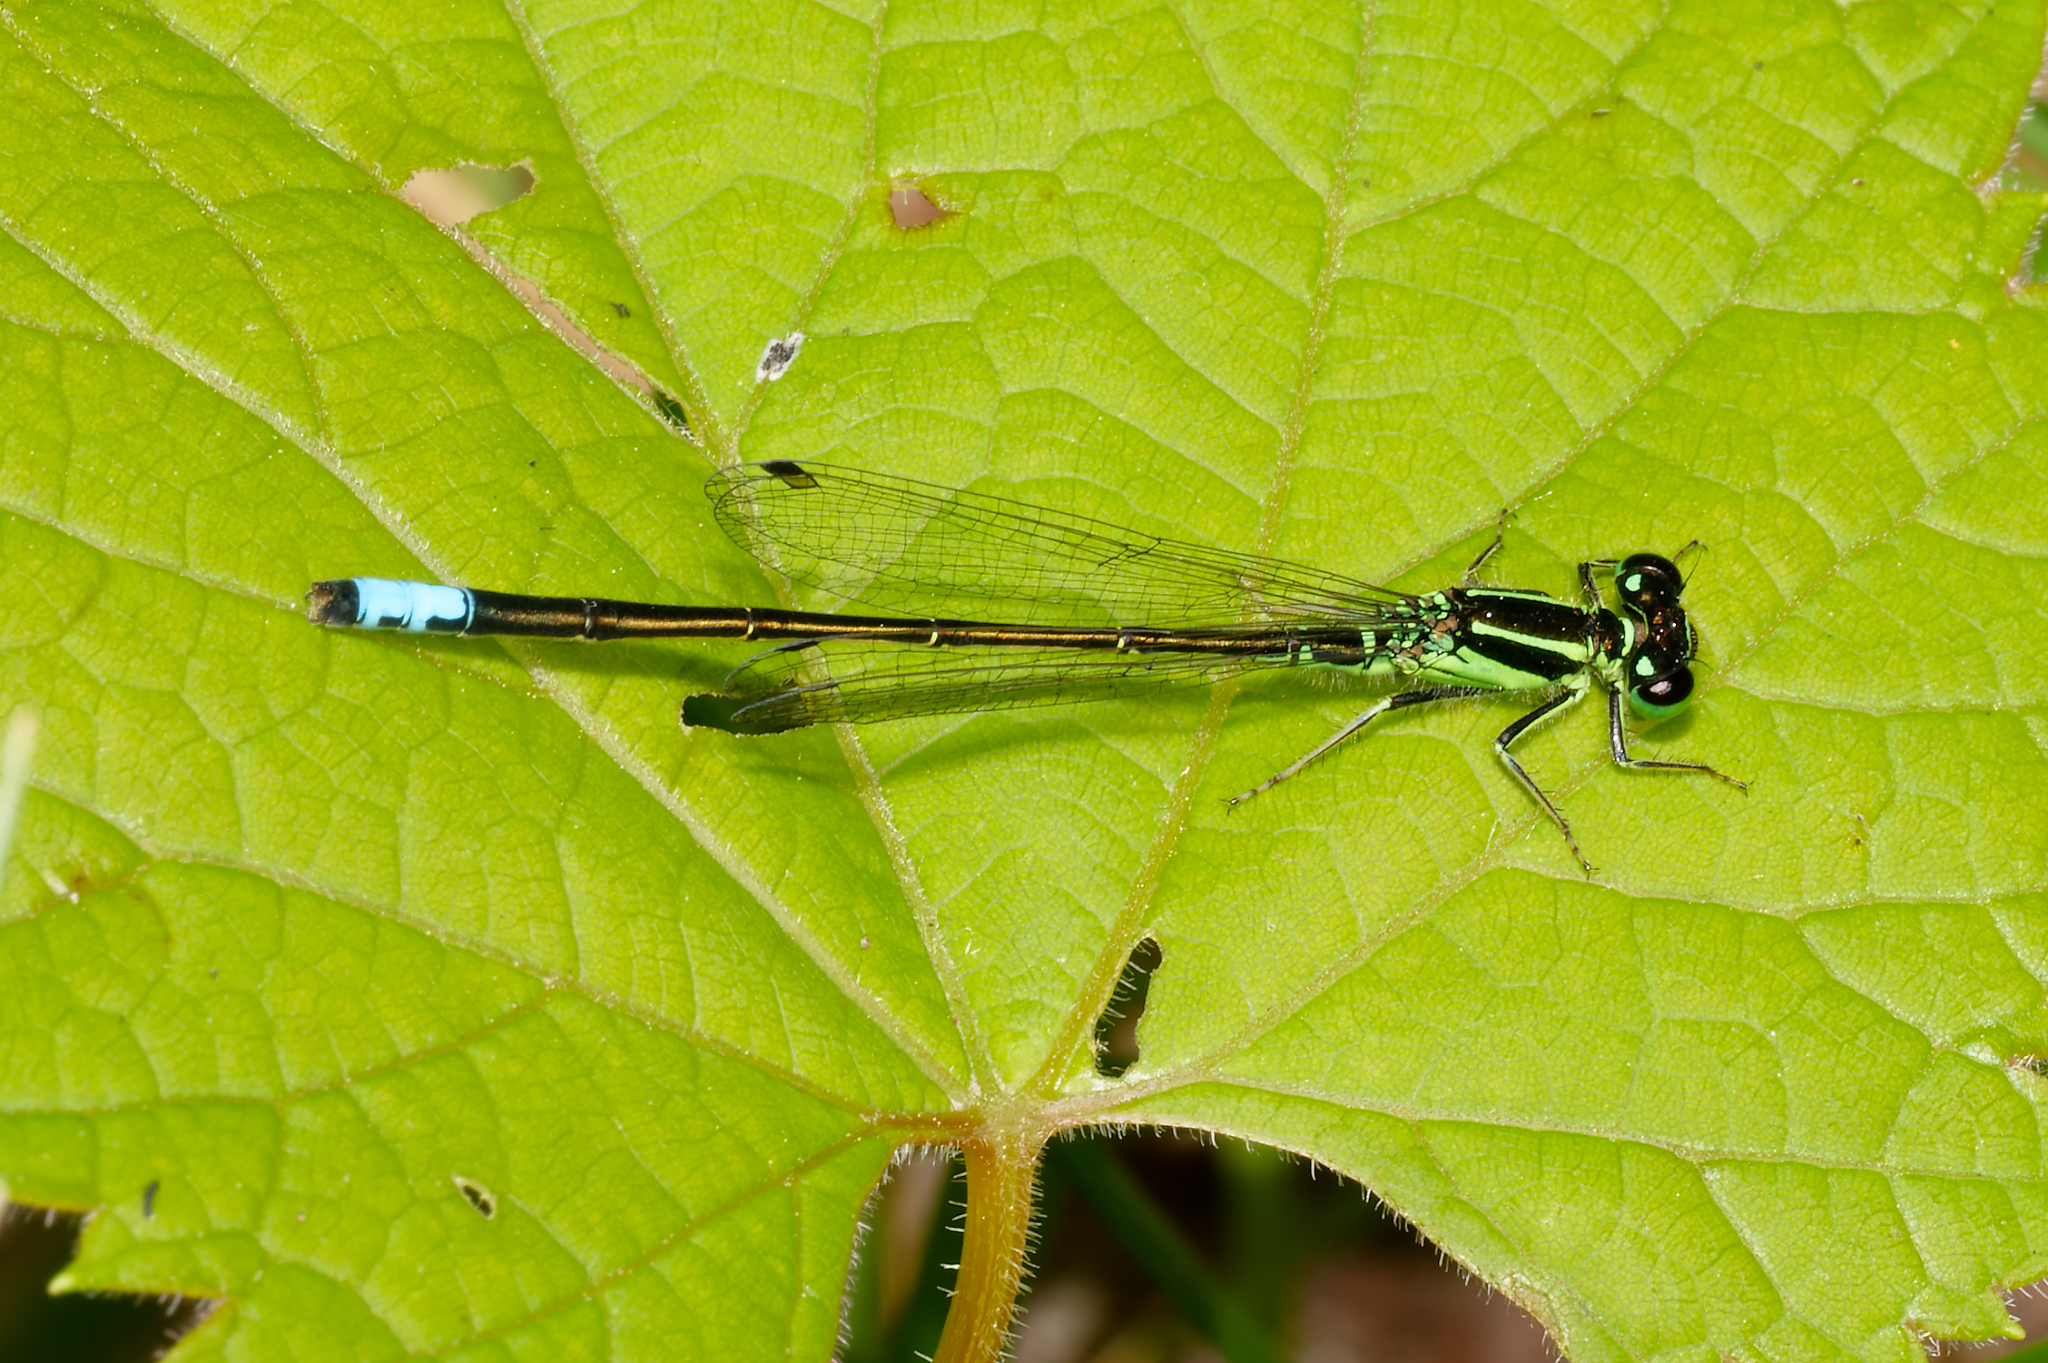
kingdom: Animalia
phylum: Arthropoda
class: Insecta
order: Odonata
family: Coenagrionidae
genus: Ischnura
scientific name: Ischnura verticalis
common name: Eastern forktail
